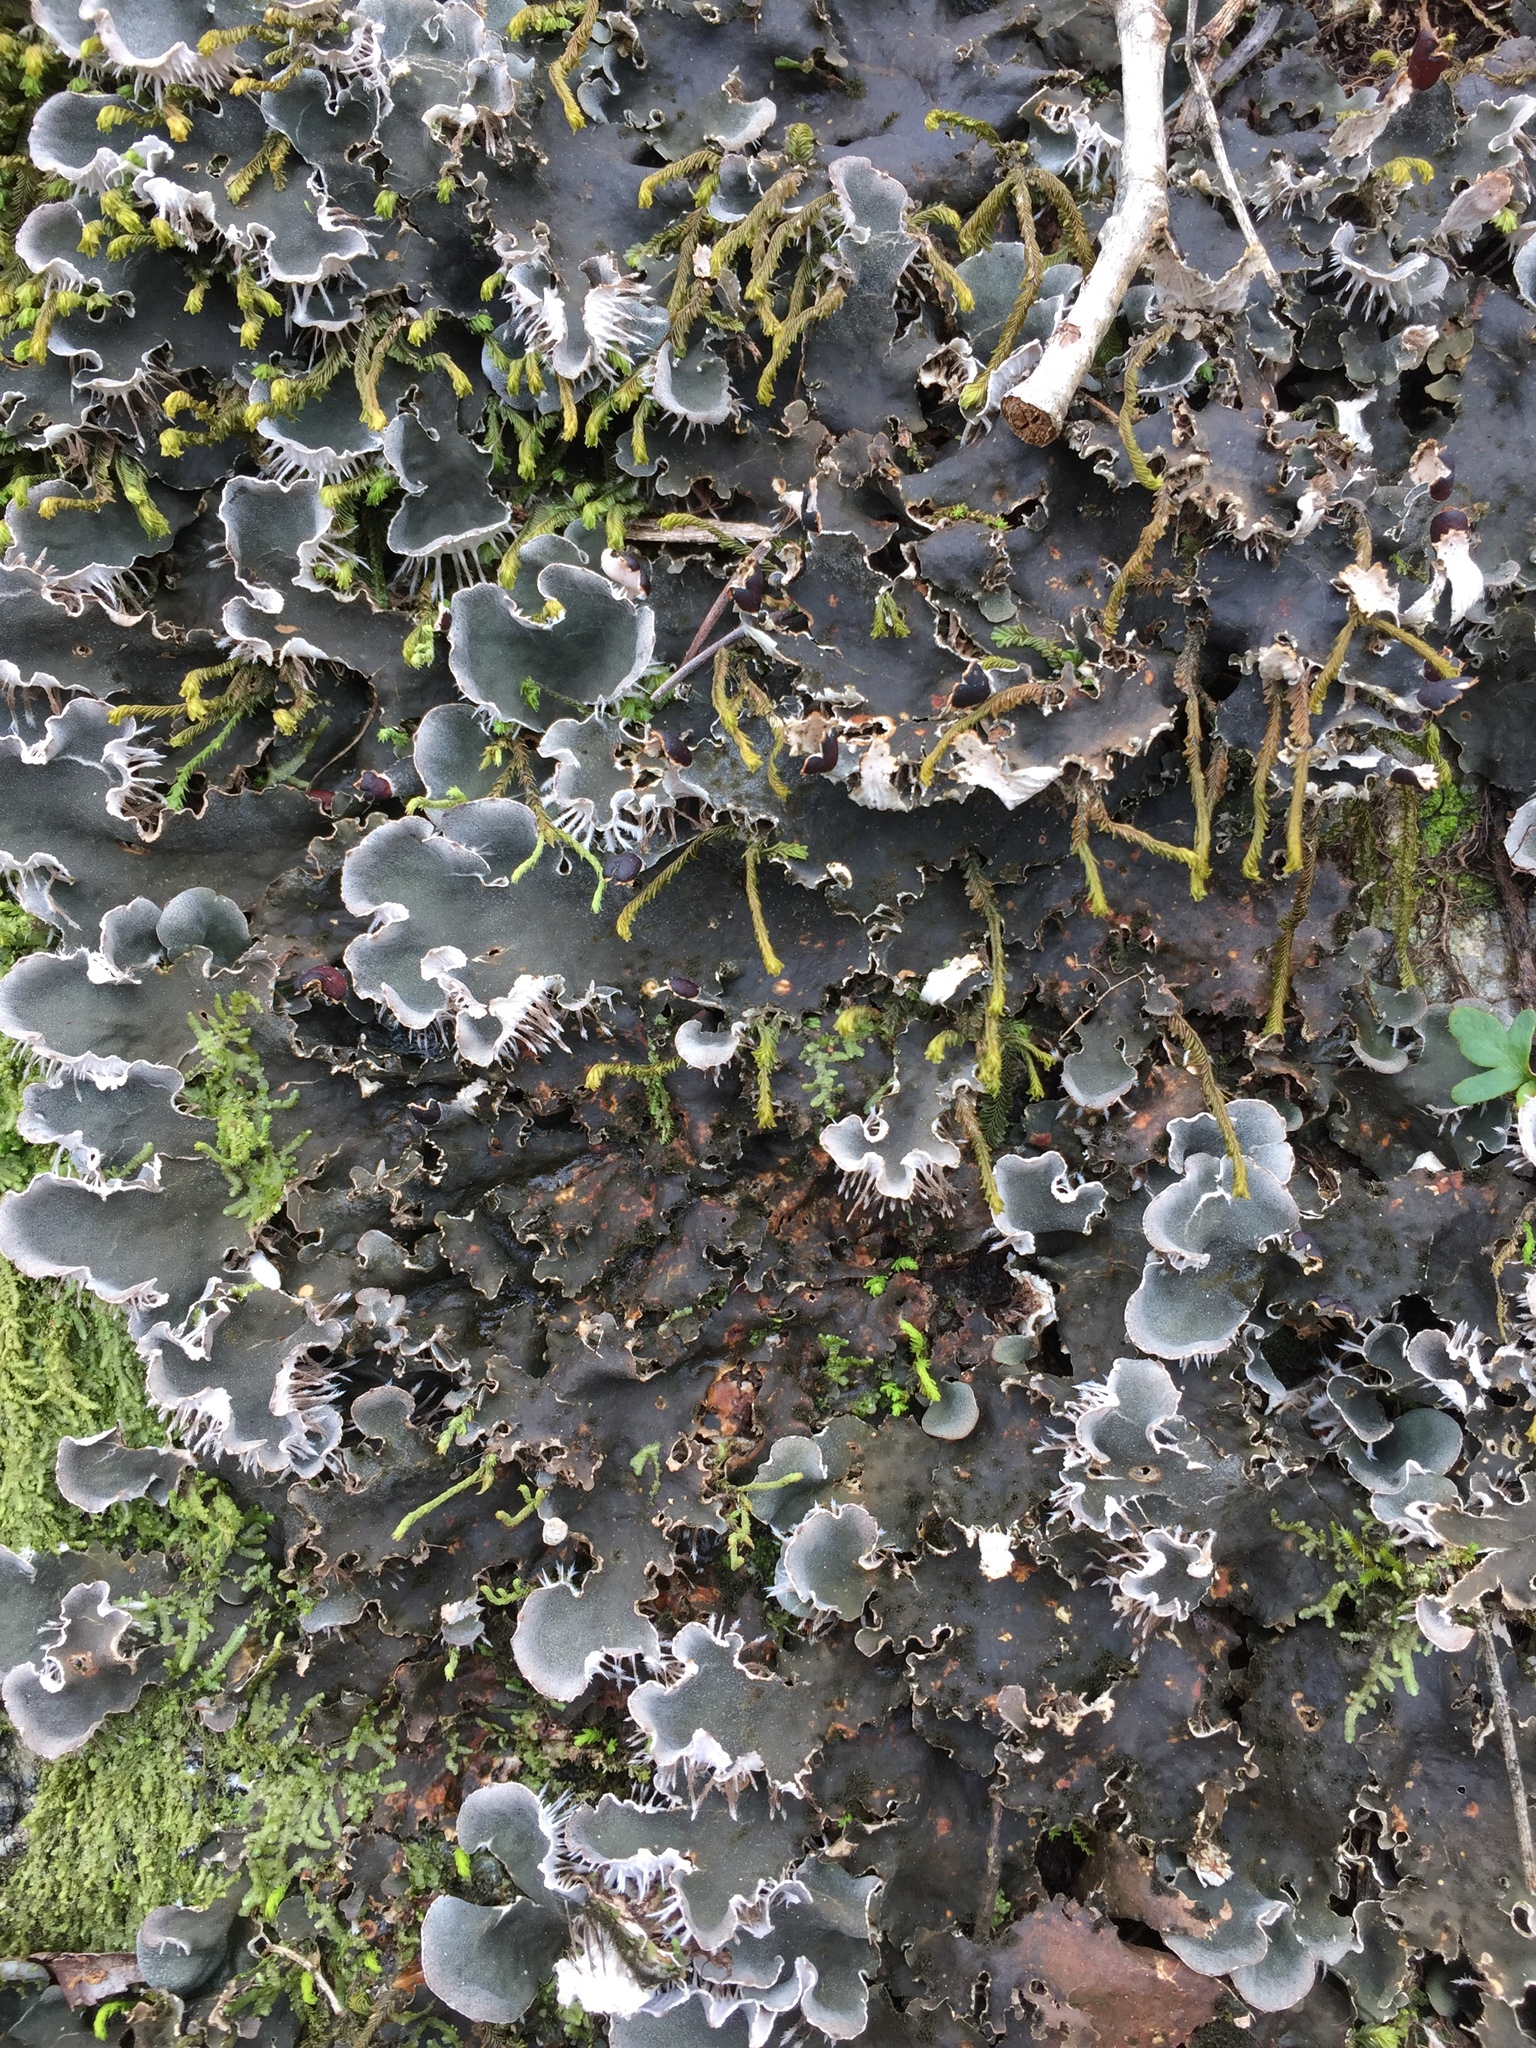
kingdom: Fungi
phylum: Ascomycota
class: Lecanoromycetes
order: Peltigerales
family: Peltigeraceae
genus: Peltigera
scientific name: Peltigera praetextata
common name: Scaly dog-lichen
